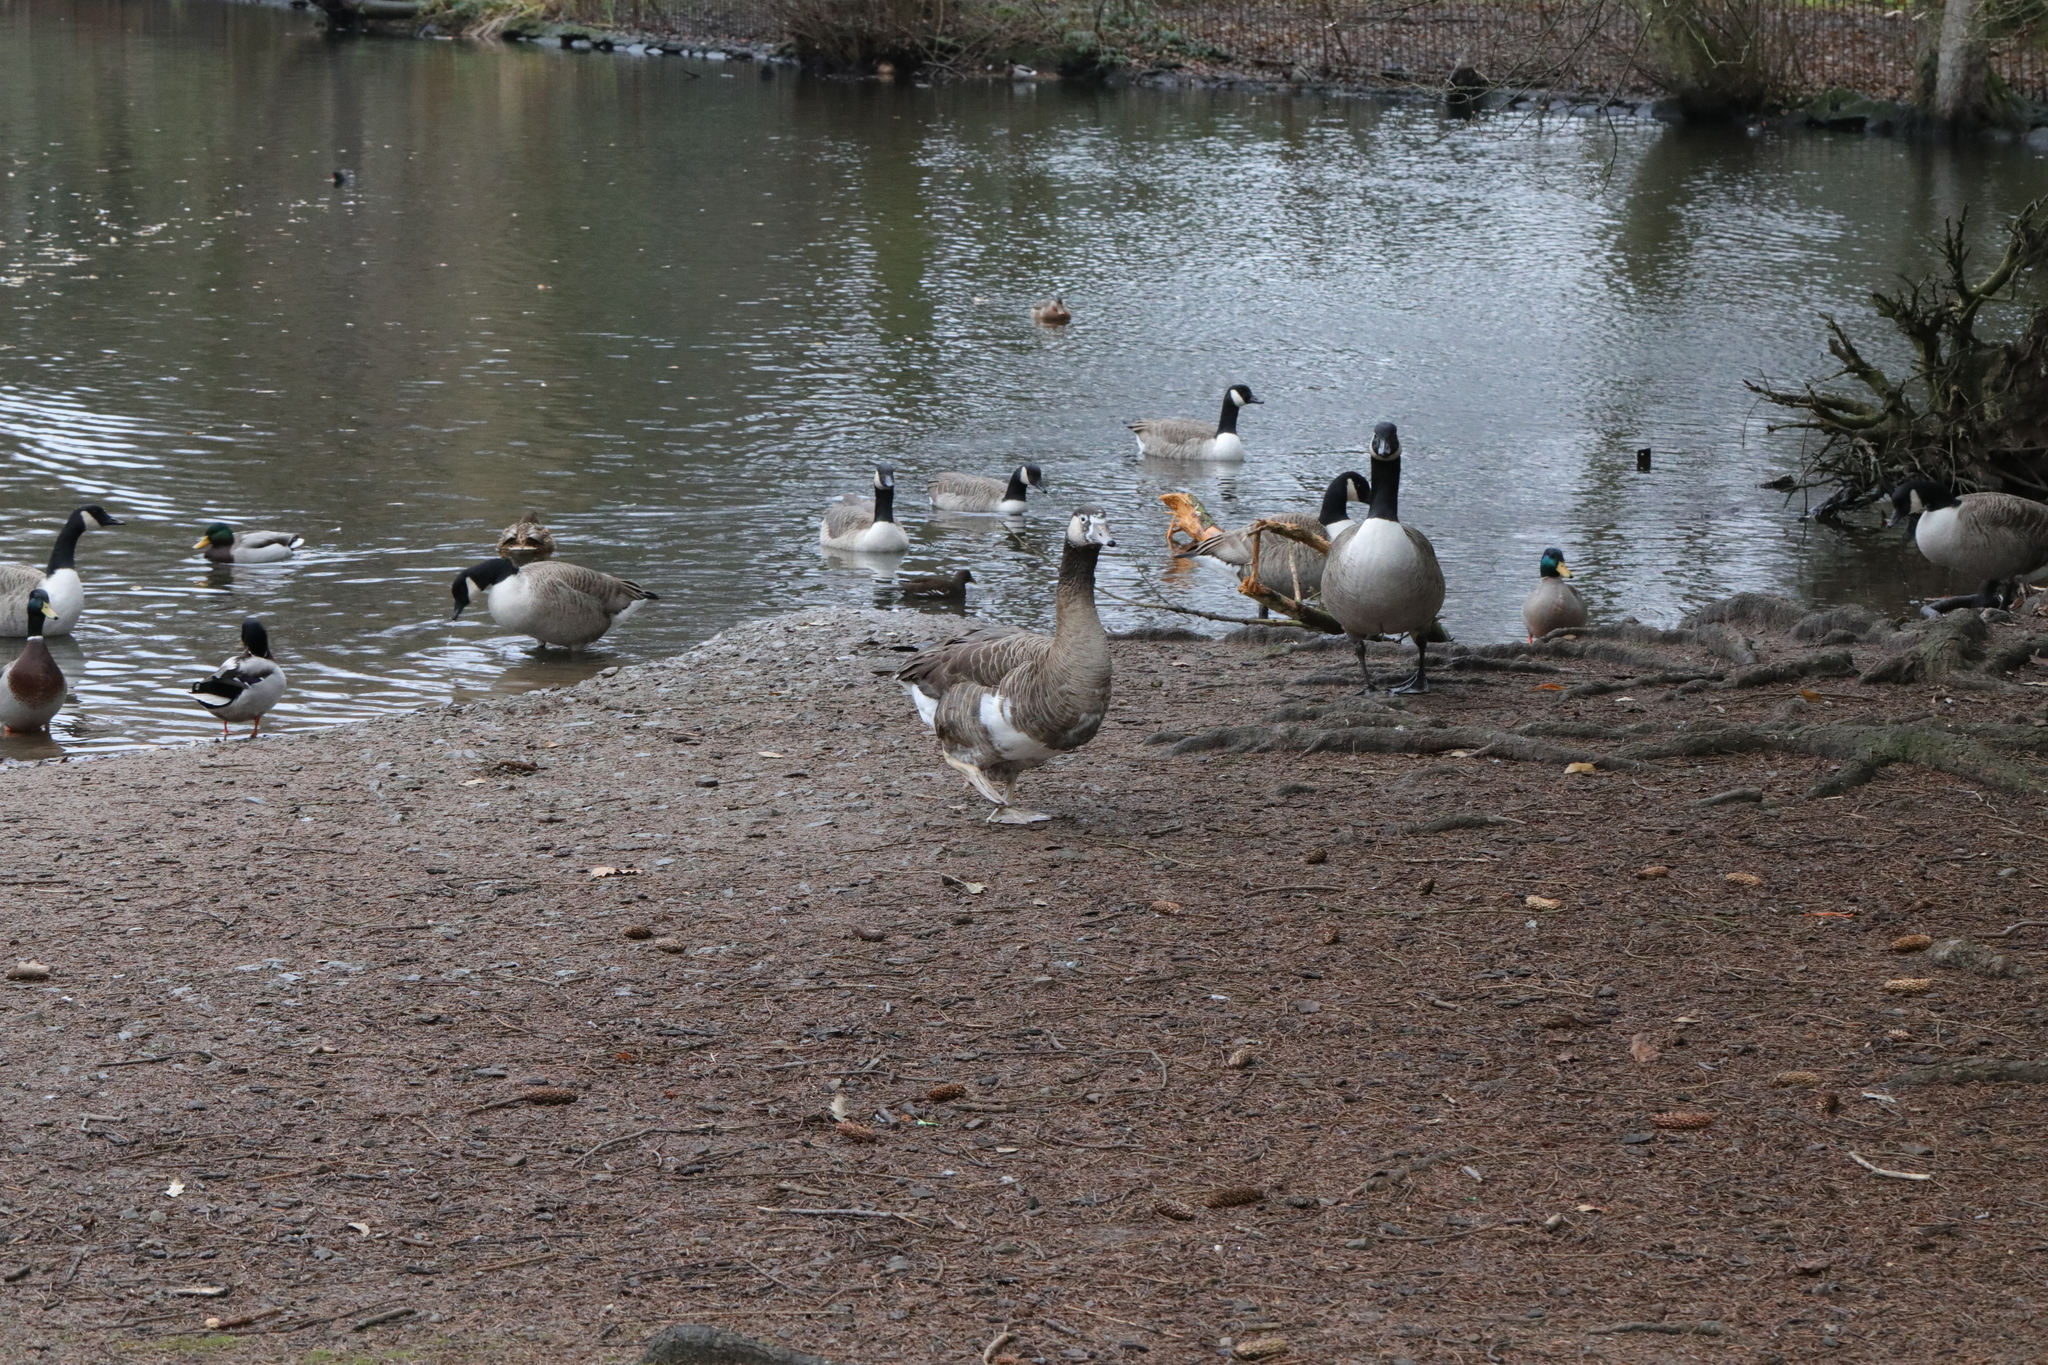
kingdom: Animalia
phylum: Chordata
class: Aves
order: Anseriformes
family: Anatidae
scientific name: Anatidae
